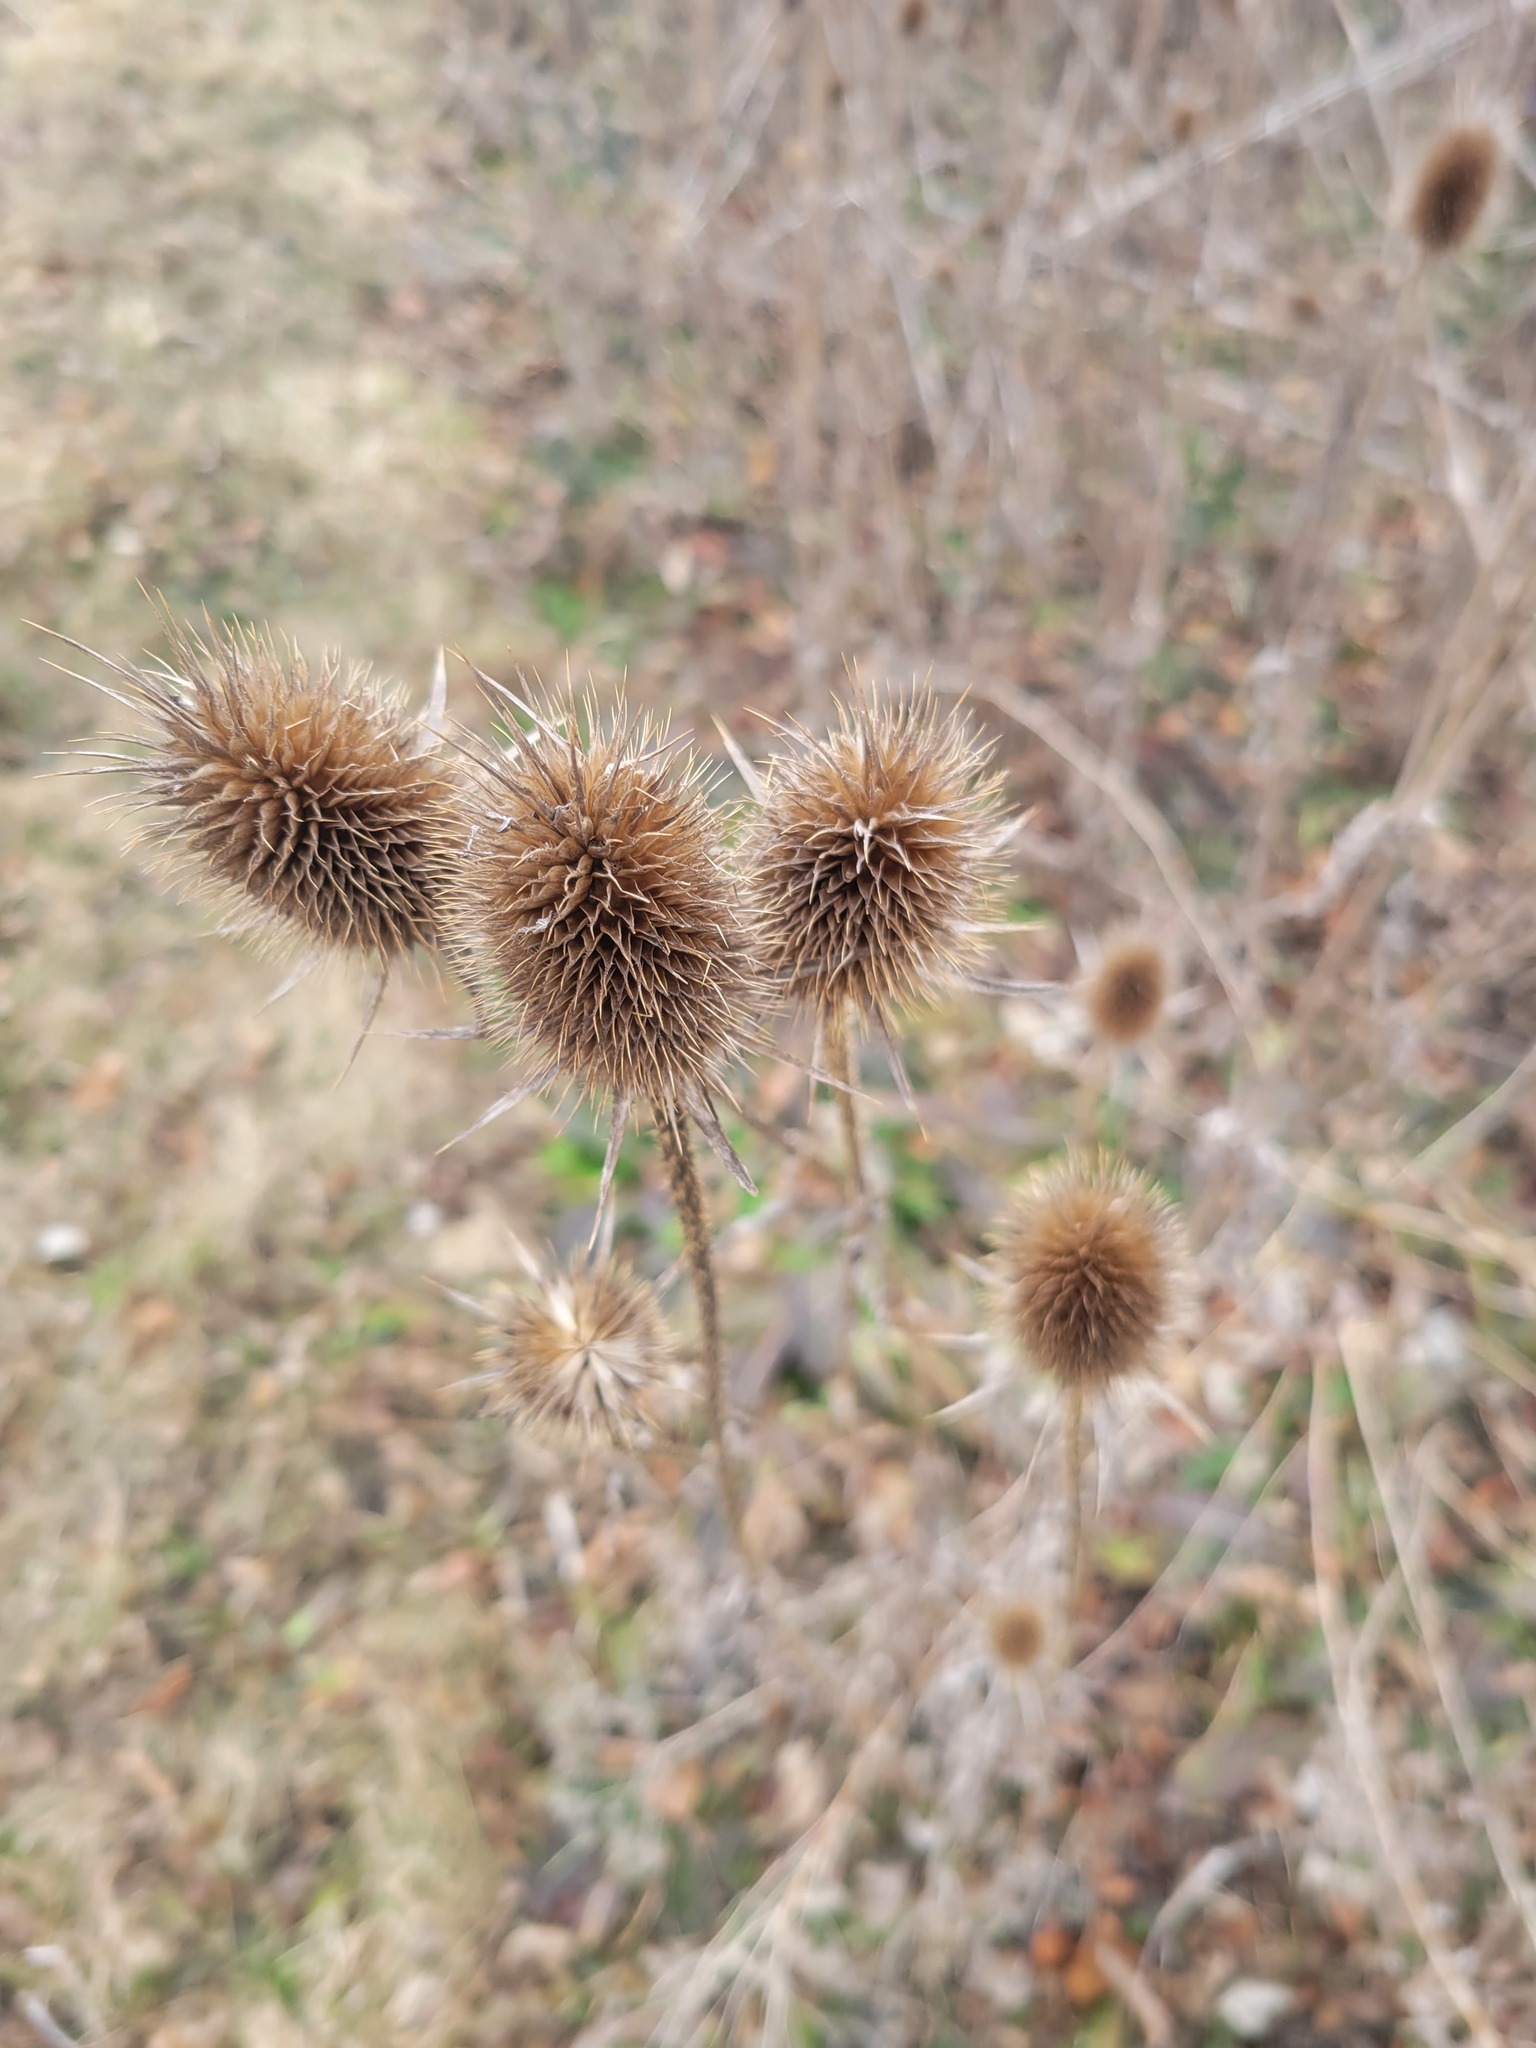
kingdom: Plantae
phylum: Tracheophyta
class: Magnoliopsida
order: Dipsacales
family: Caprifoliaceae
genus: Dipsacus
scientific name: Dipsacus laciniatus
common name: Cut-leaved teasel
